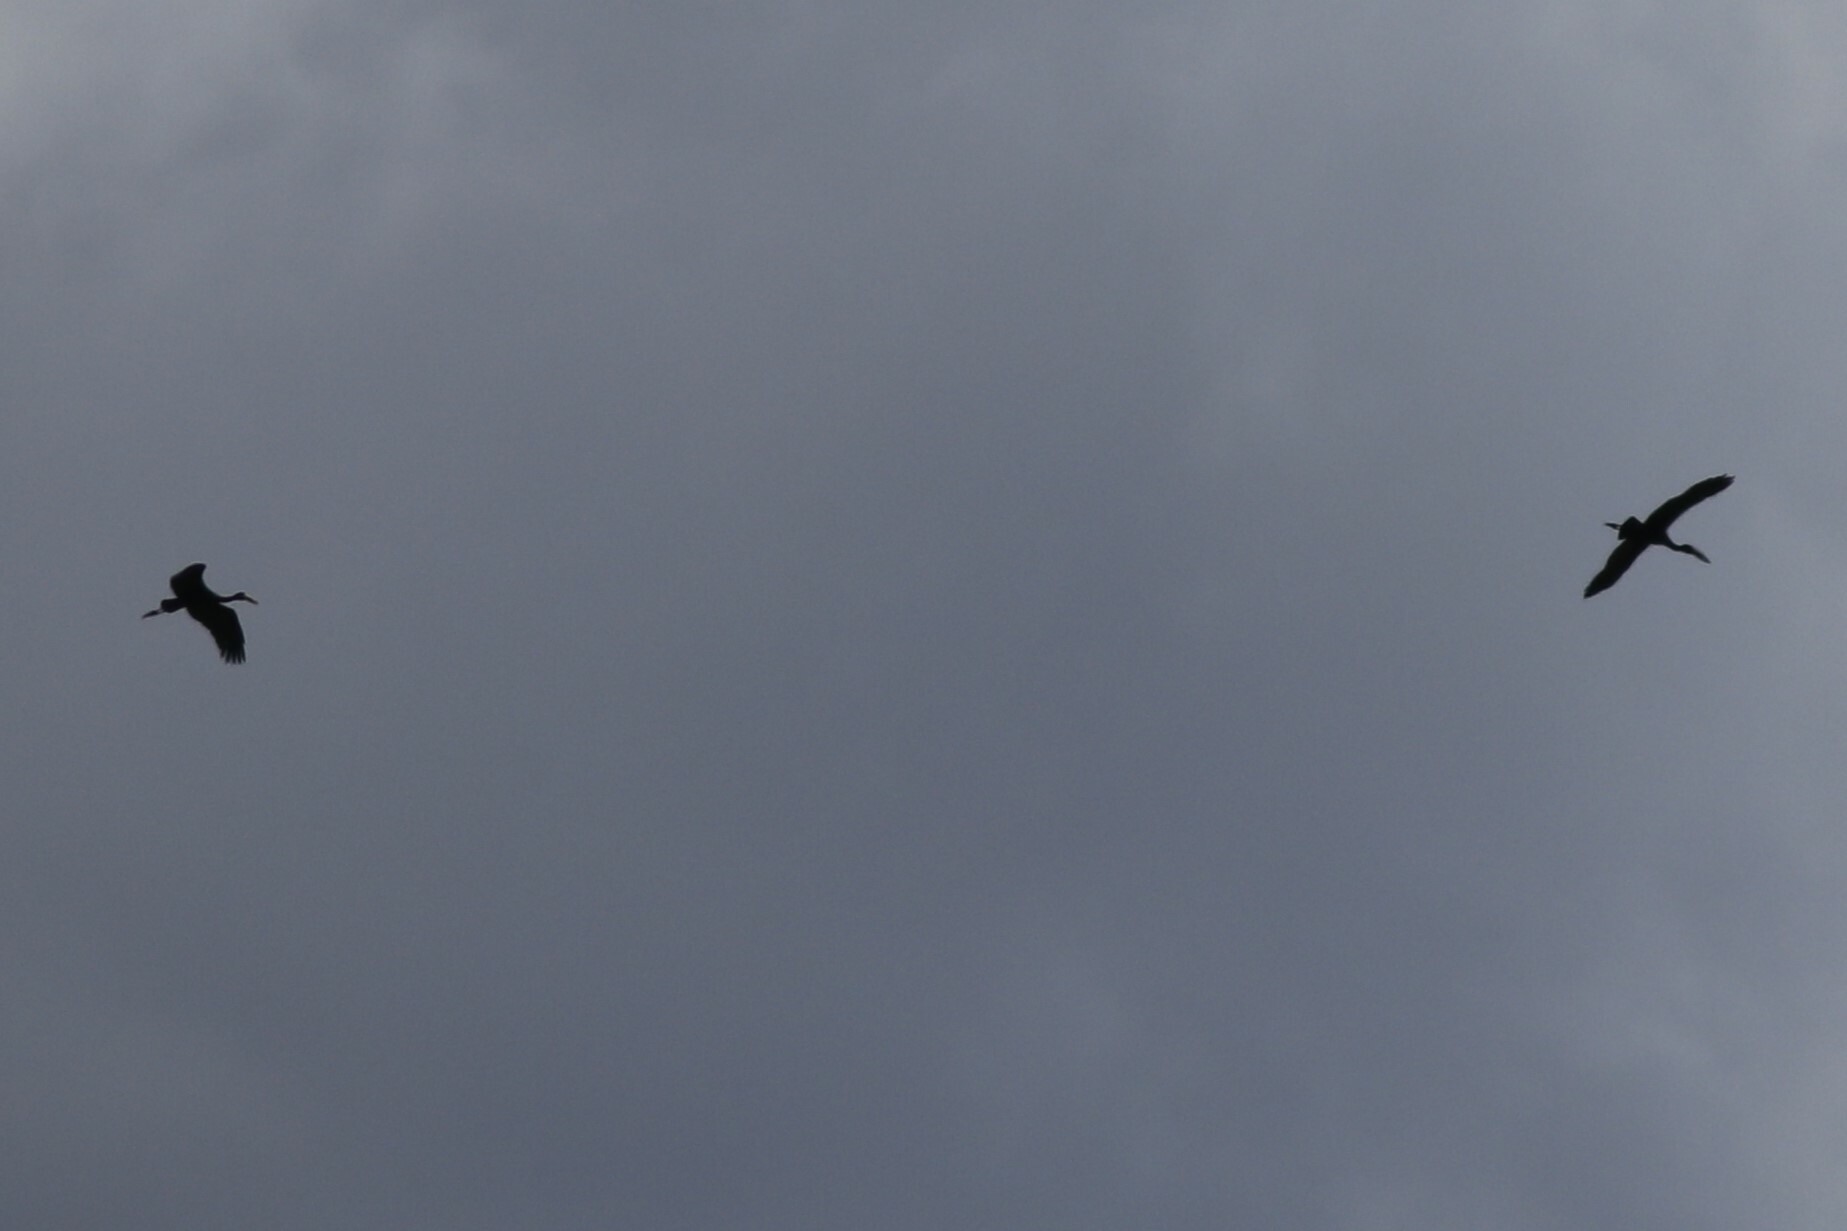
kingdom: Animalia
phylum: Chordata
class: Aves
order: Ciconiiformes
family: Ciconiidae
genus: Anastomus
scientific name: Anastomus lamelligerus
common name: African openbill
